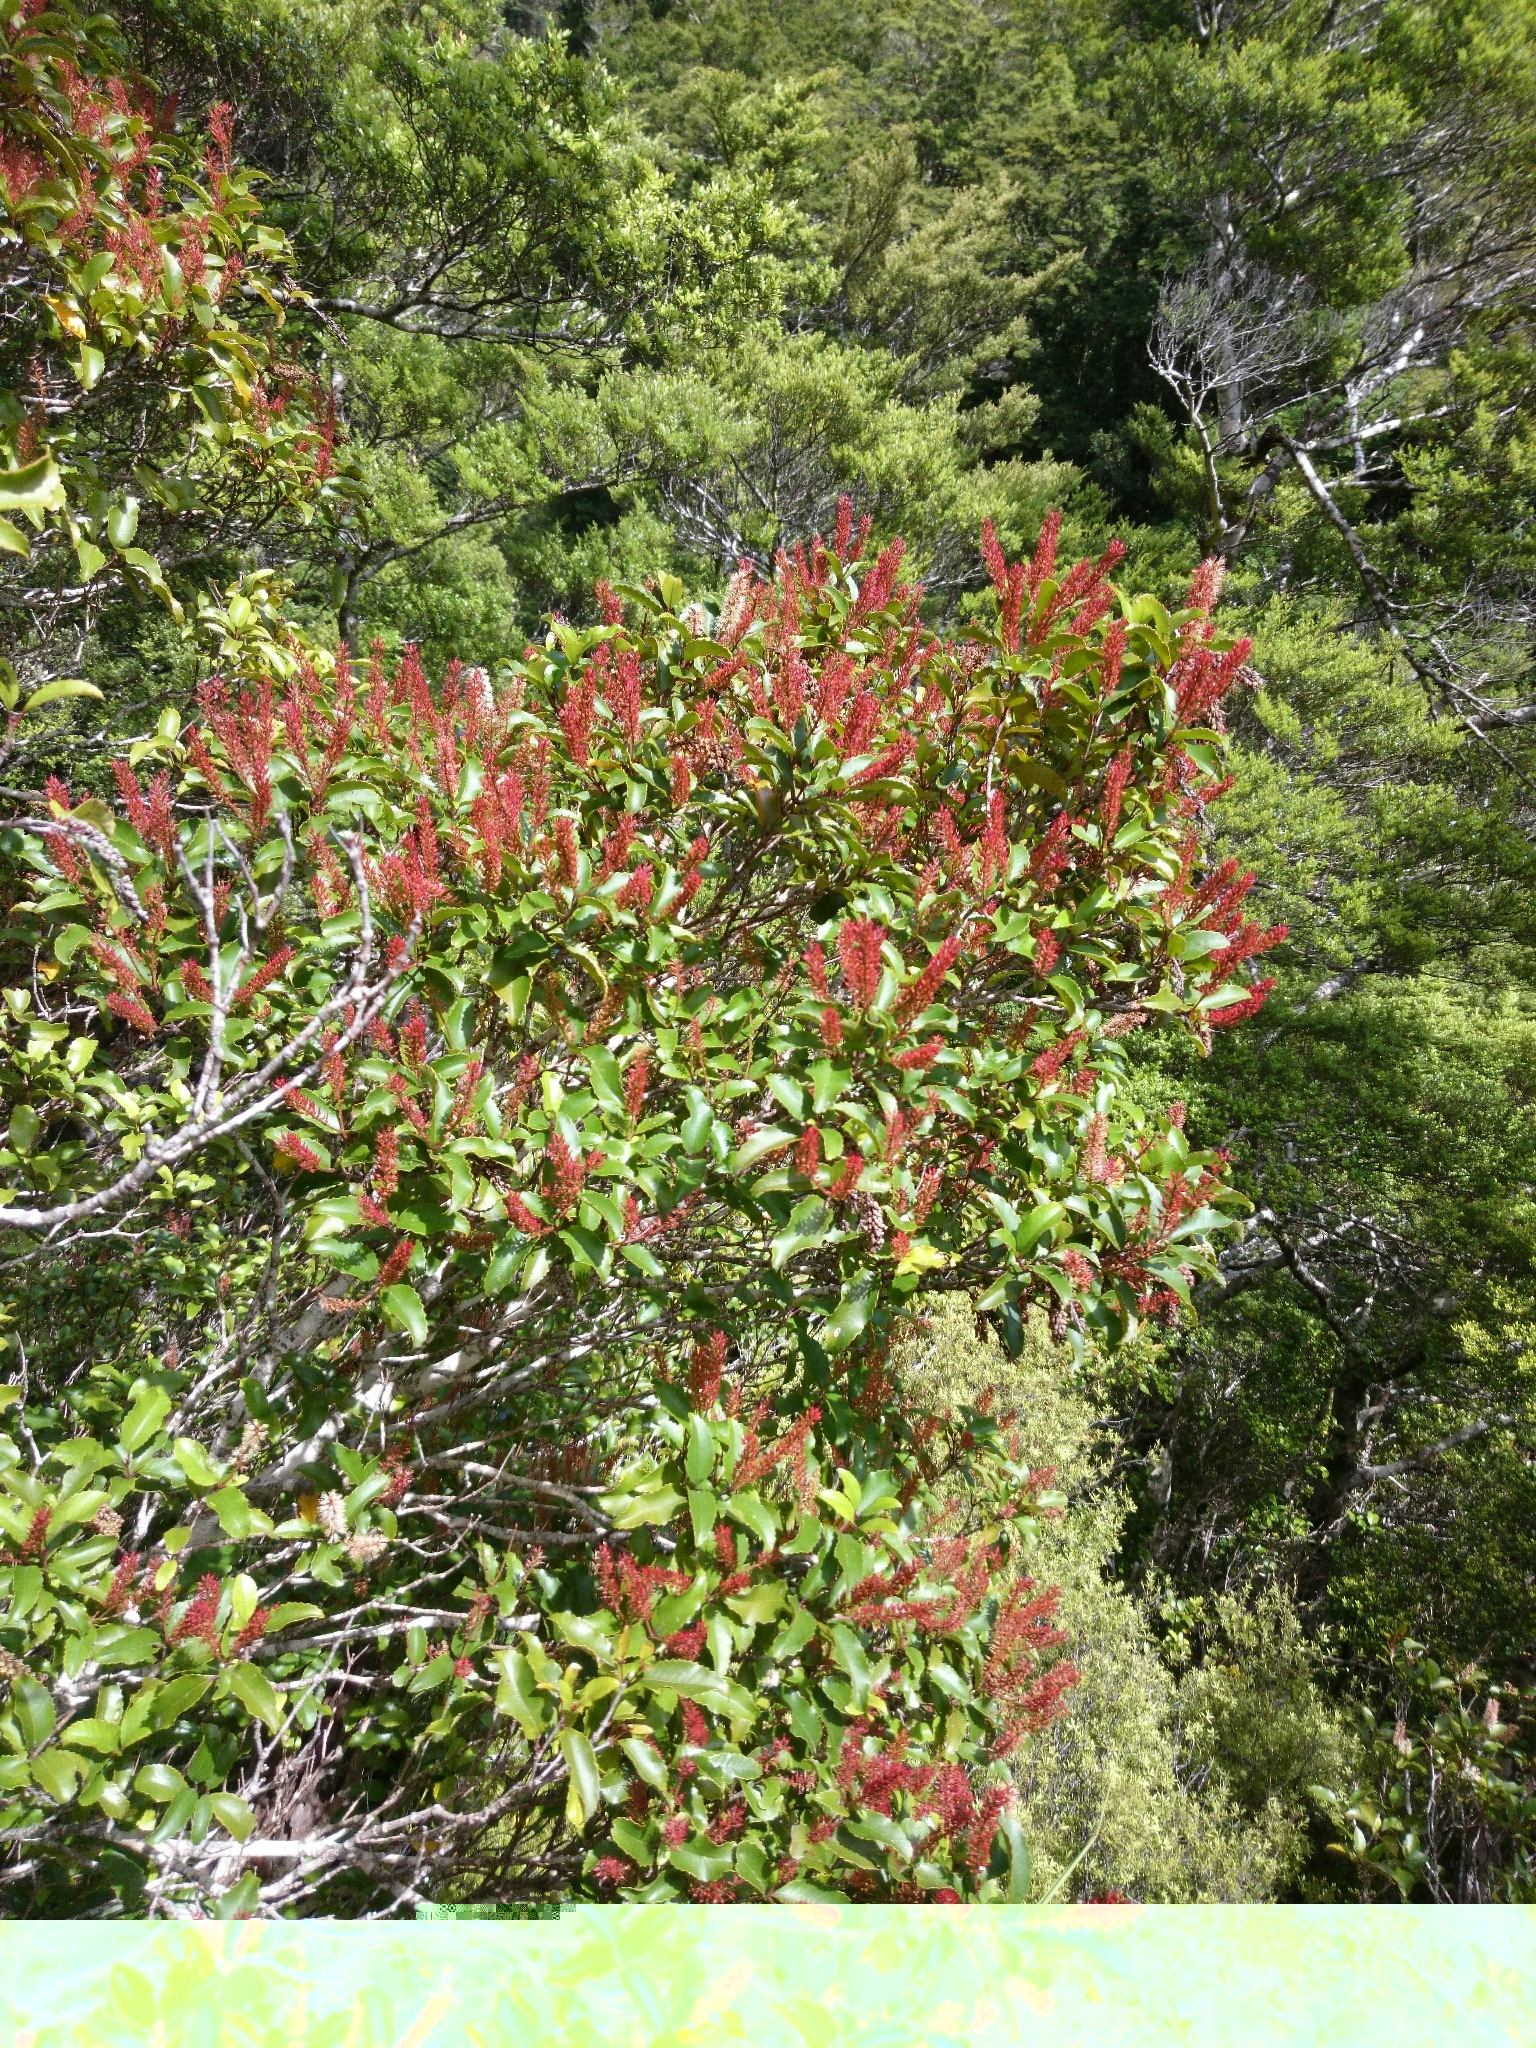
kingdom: Plantae
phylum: Tracheophyta
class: Magnoliopsida
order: Oxalidales
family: Cunoniaceae
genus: Pterophylla
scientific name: Pterophylla racemosa
